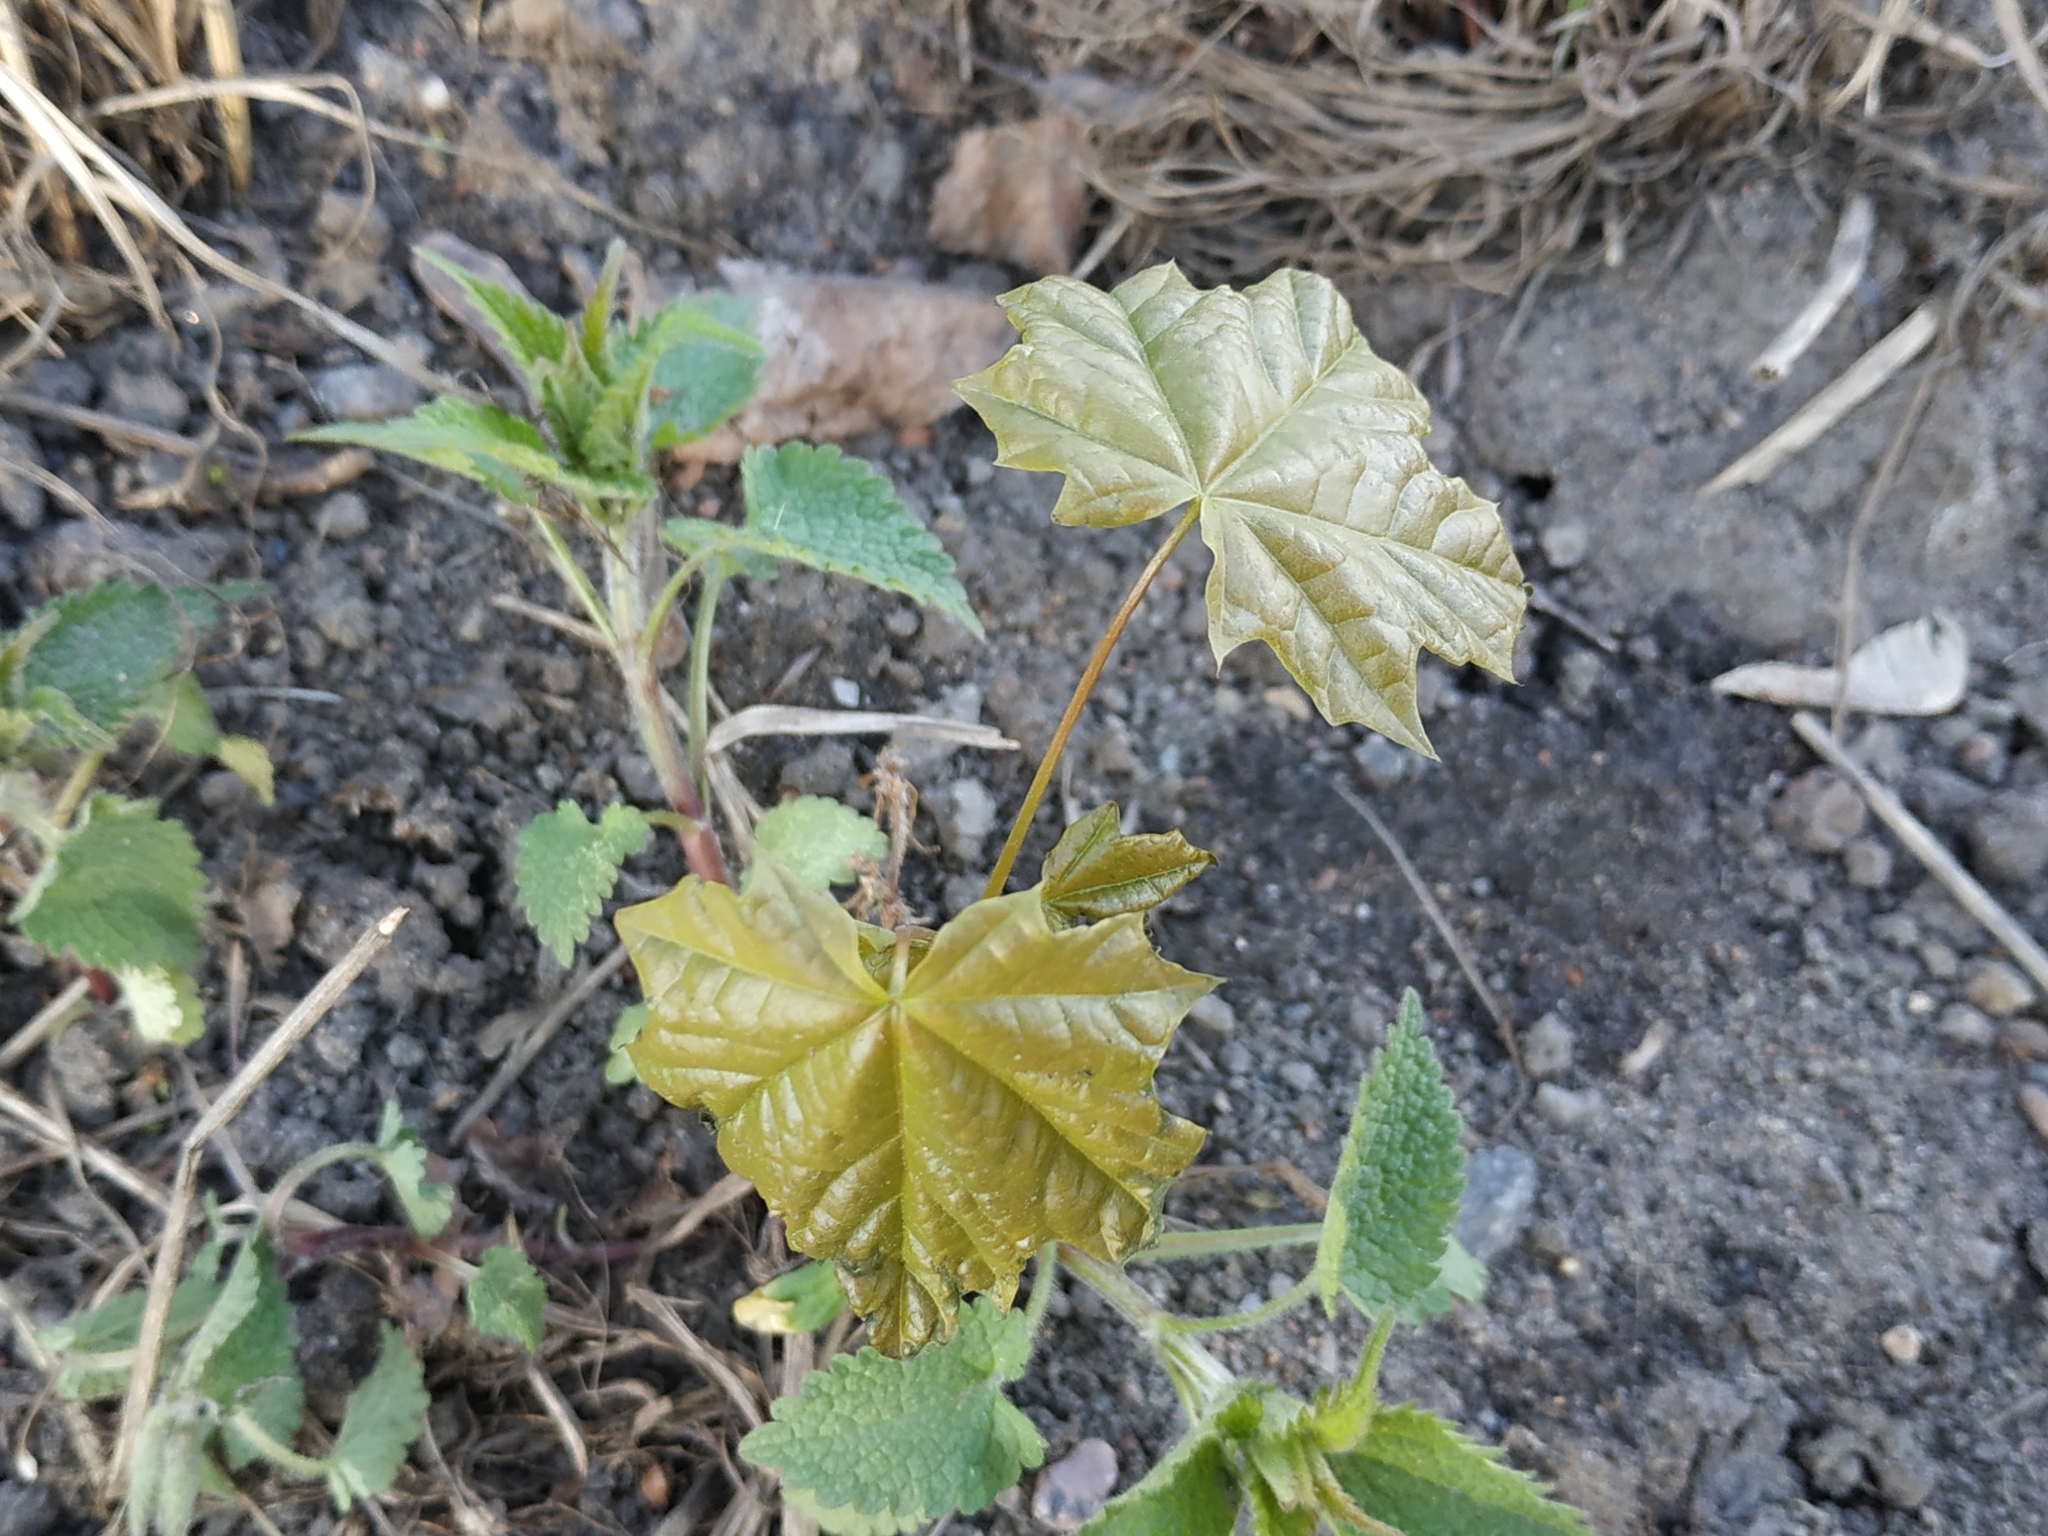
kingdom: Plantae
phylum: Tracheophyta
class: Magnoliopsida
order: Sapindales
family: Sapindaceae
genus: Acer
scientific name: Acer platanoides
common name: Norway maple
